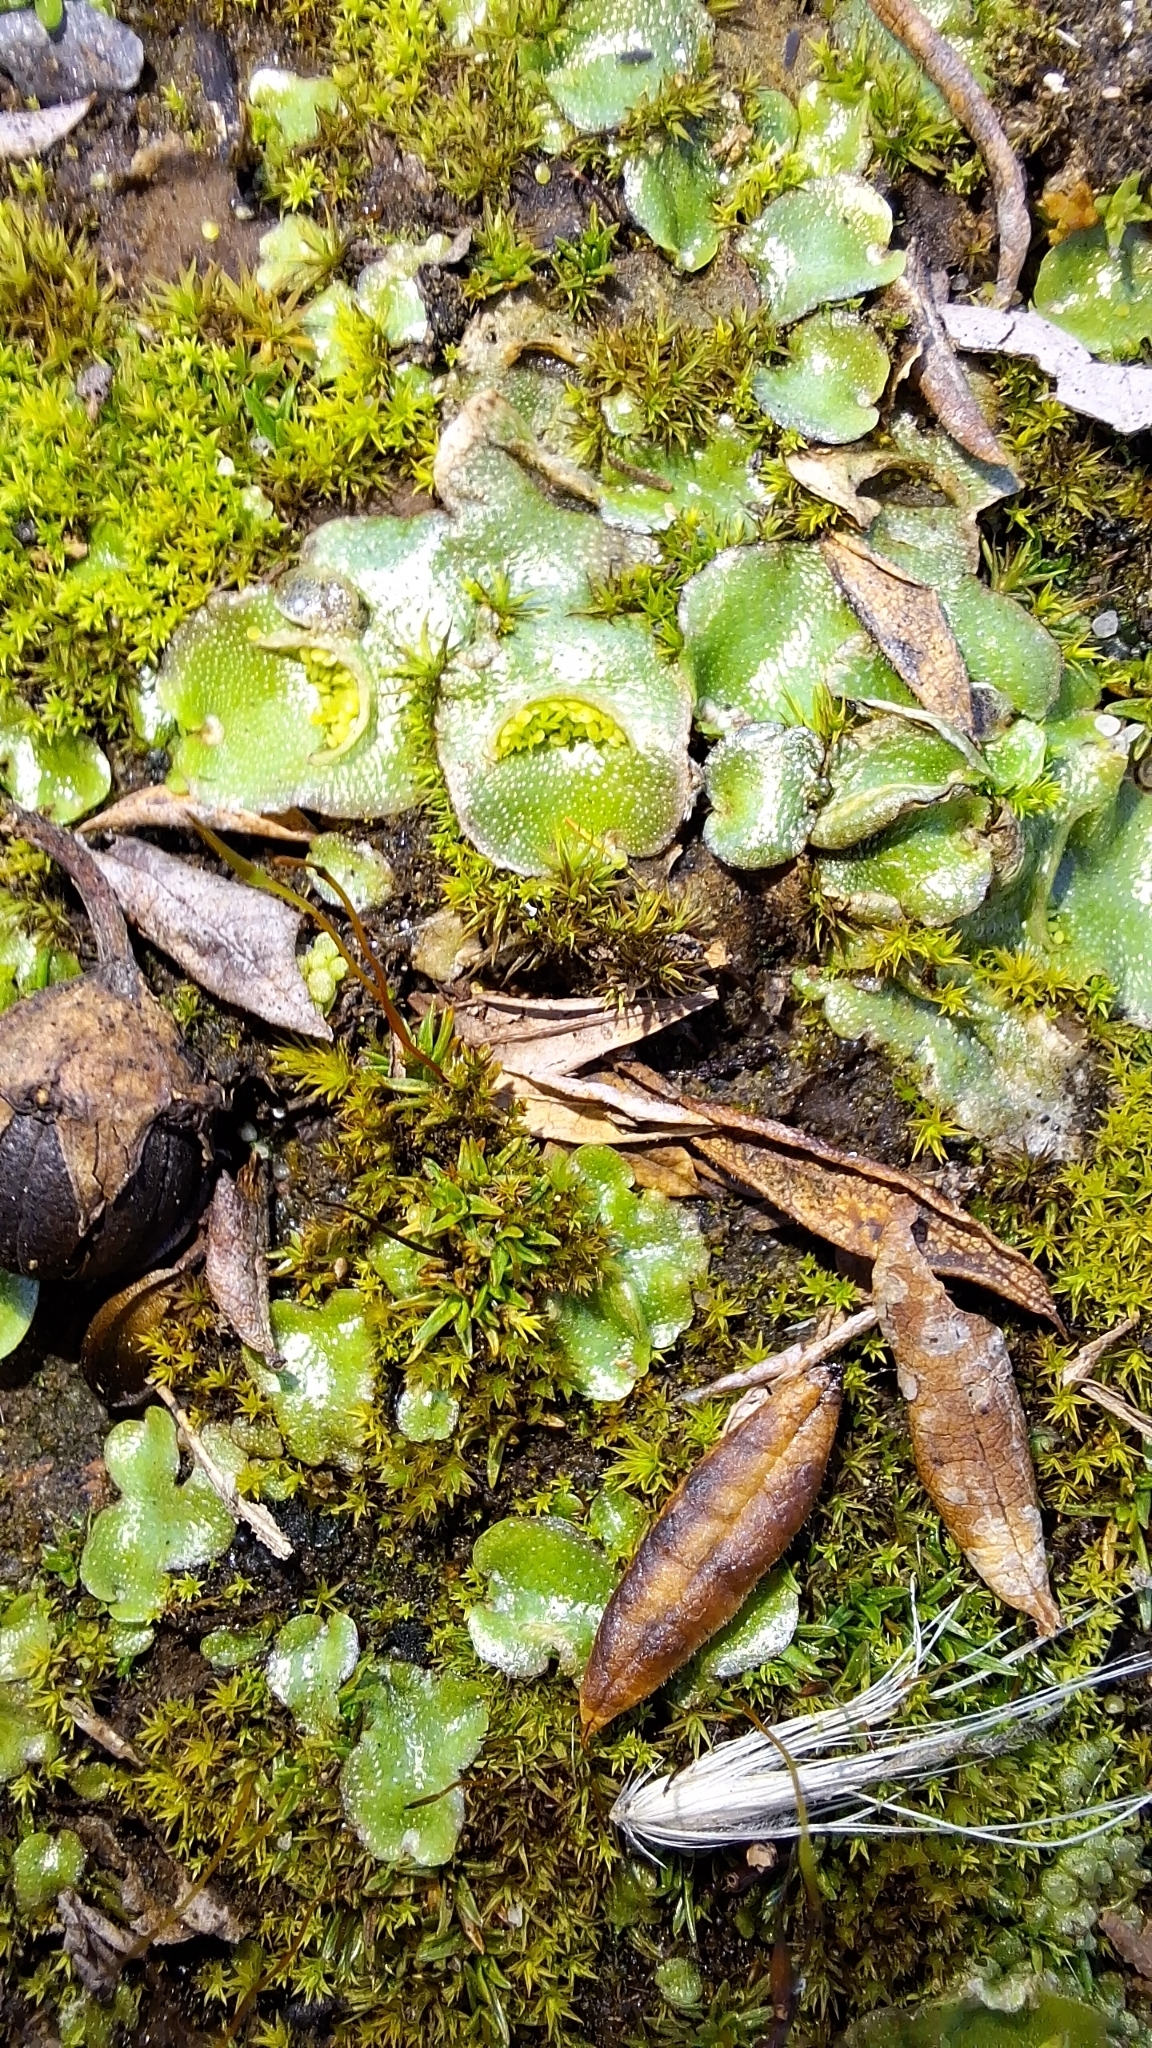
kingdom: Plantae
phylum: Marchantiophyta
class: Marchantiopsida
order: Lunulariales
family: Lunulariaceae
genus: Lunularia
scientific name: Lunularia cruciata
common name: Crescent-cup liverwort
